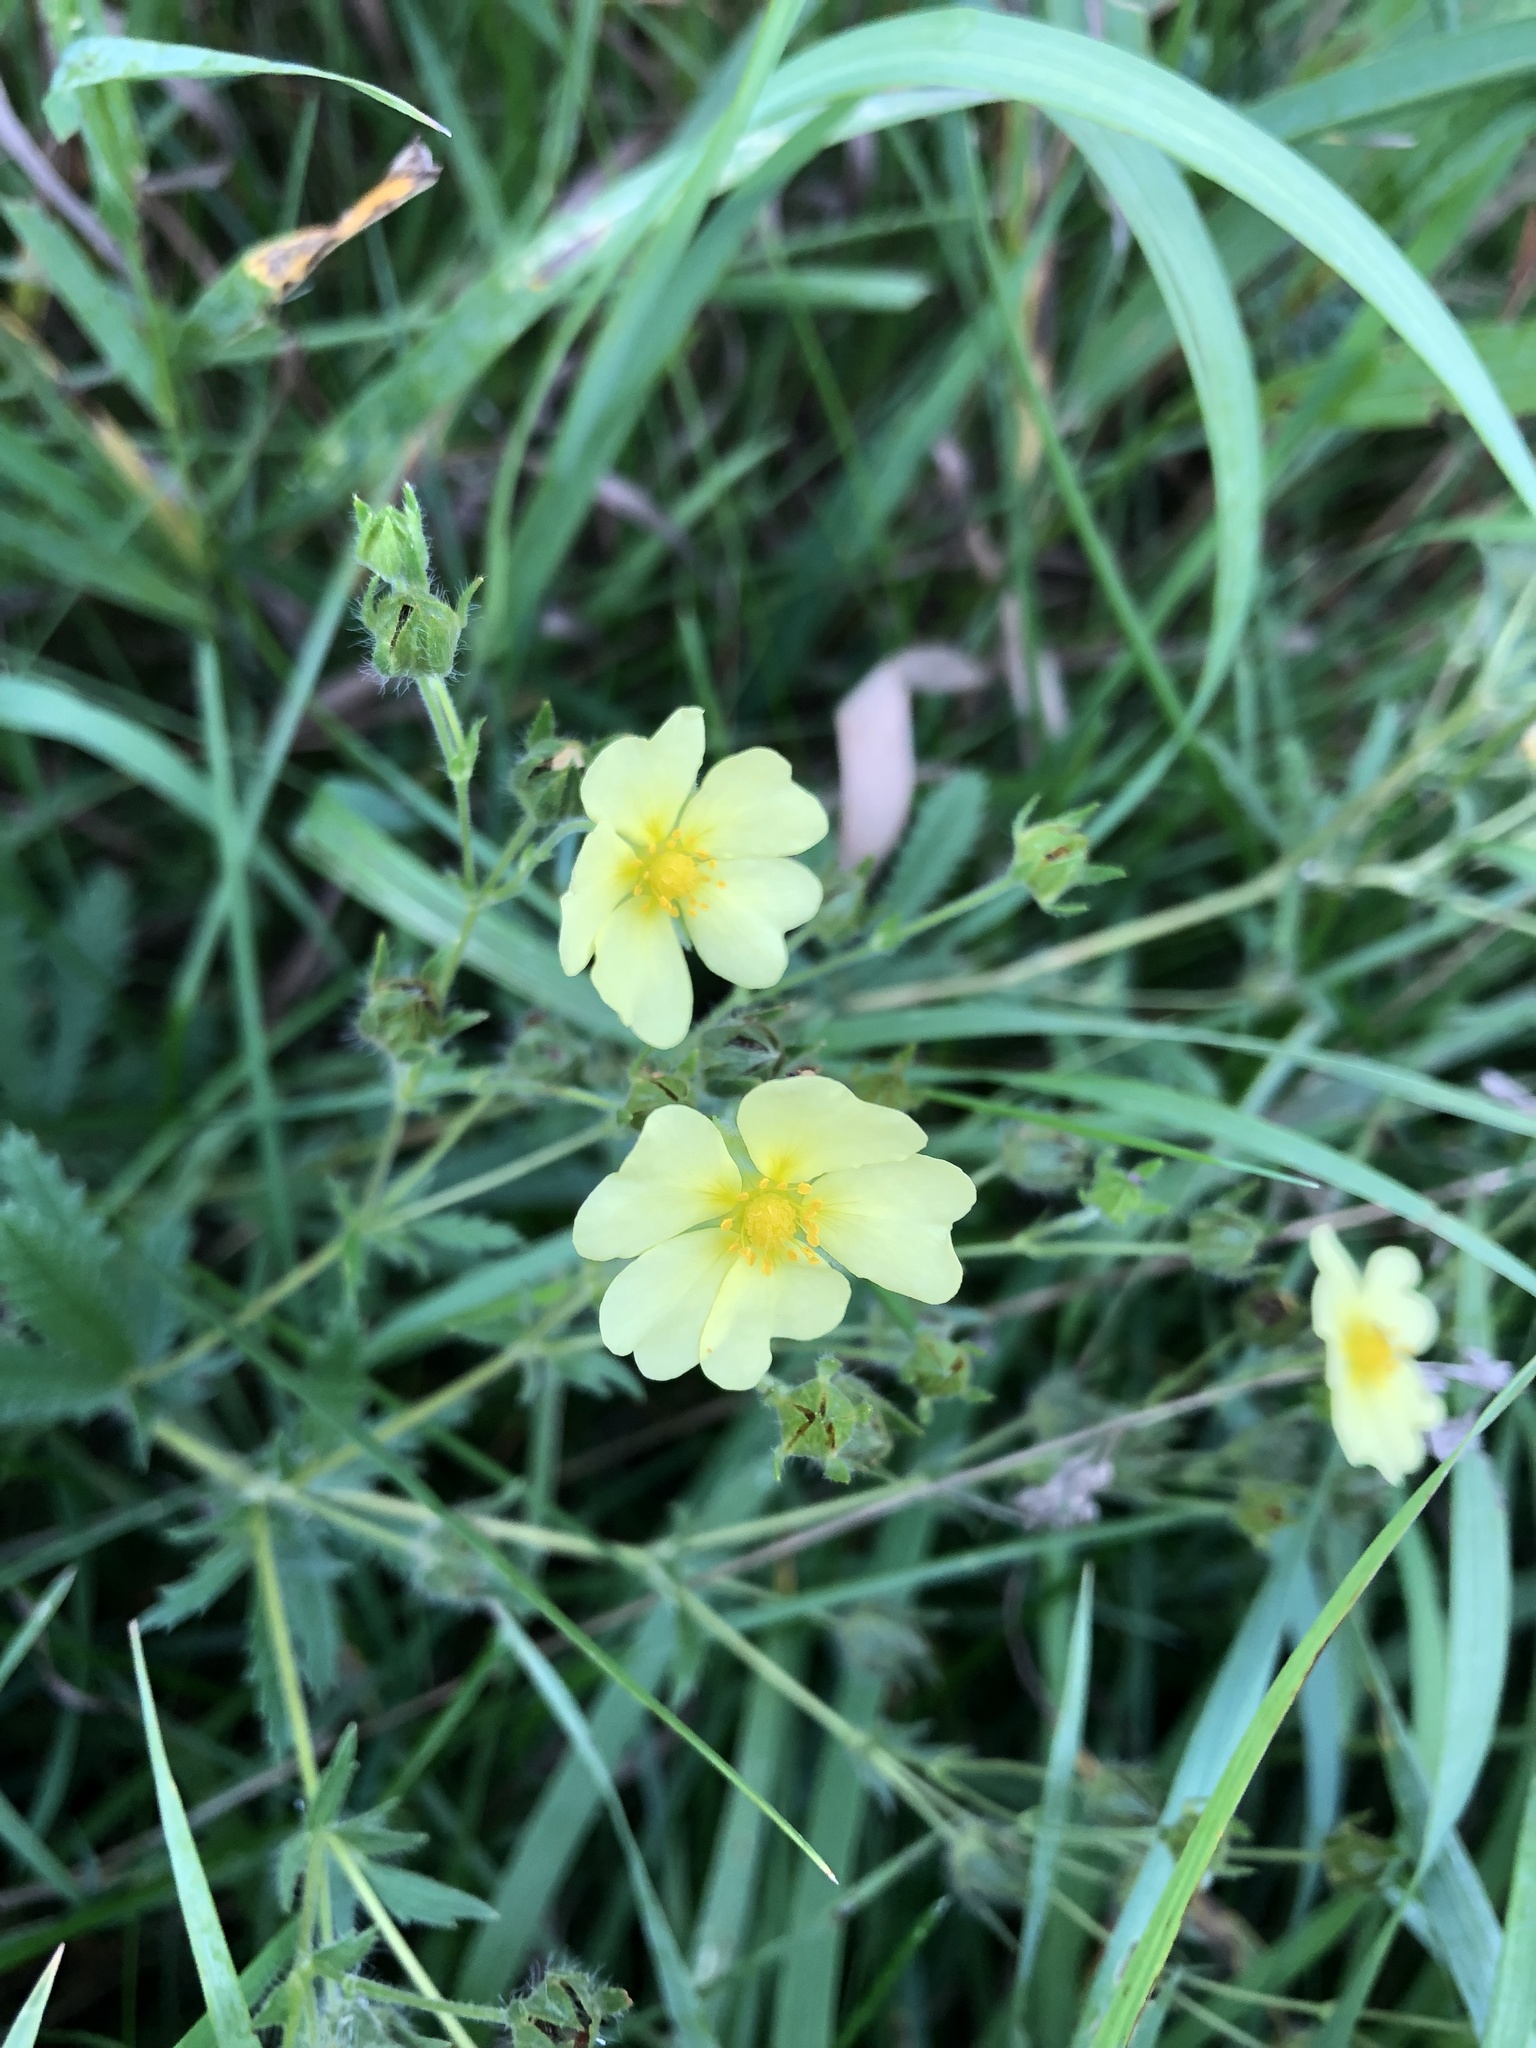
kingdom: Plantae
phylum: Tracheophyta
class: Magnoliopsida
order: Rosales
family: Rosaceae
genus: Potentilla
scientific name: Potentilla recta
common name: Sulphur cinquefoil
